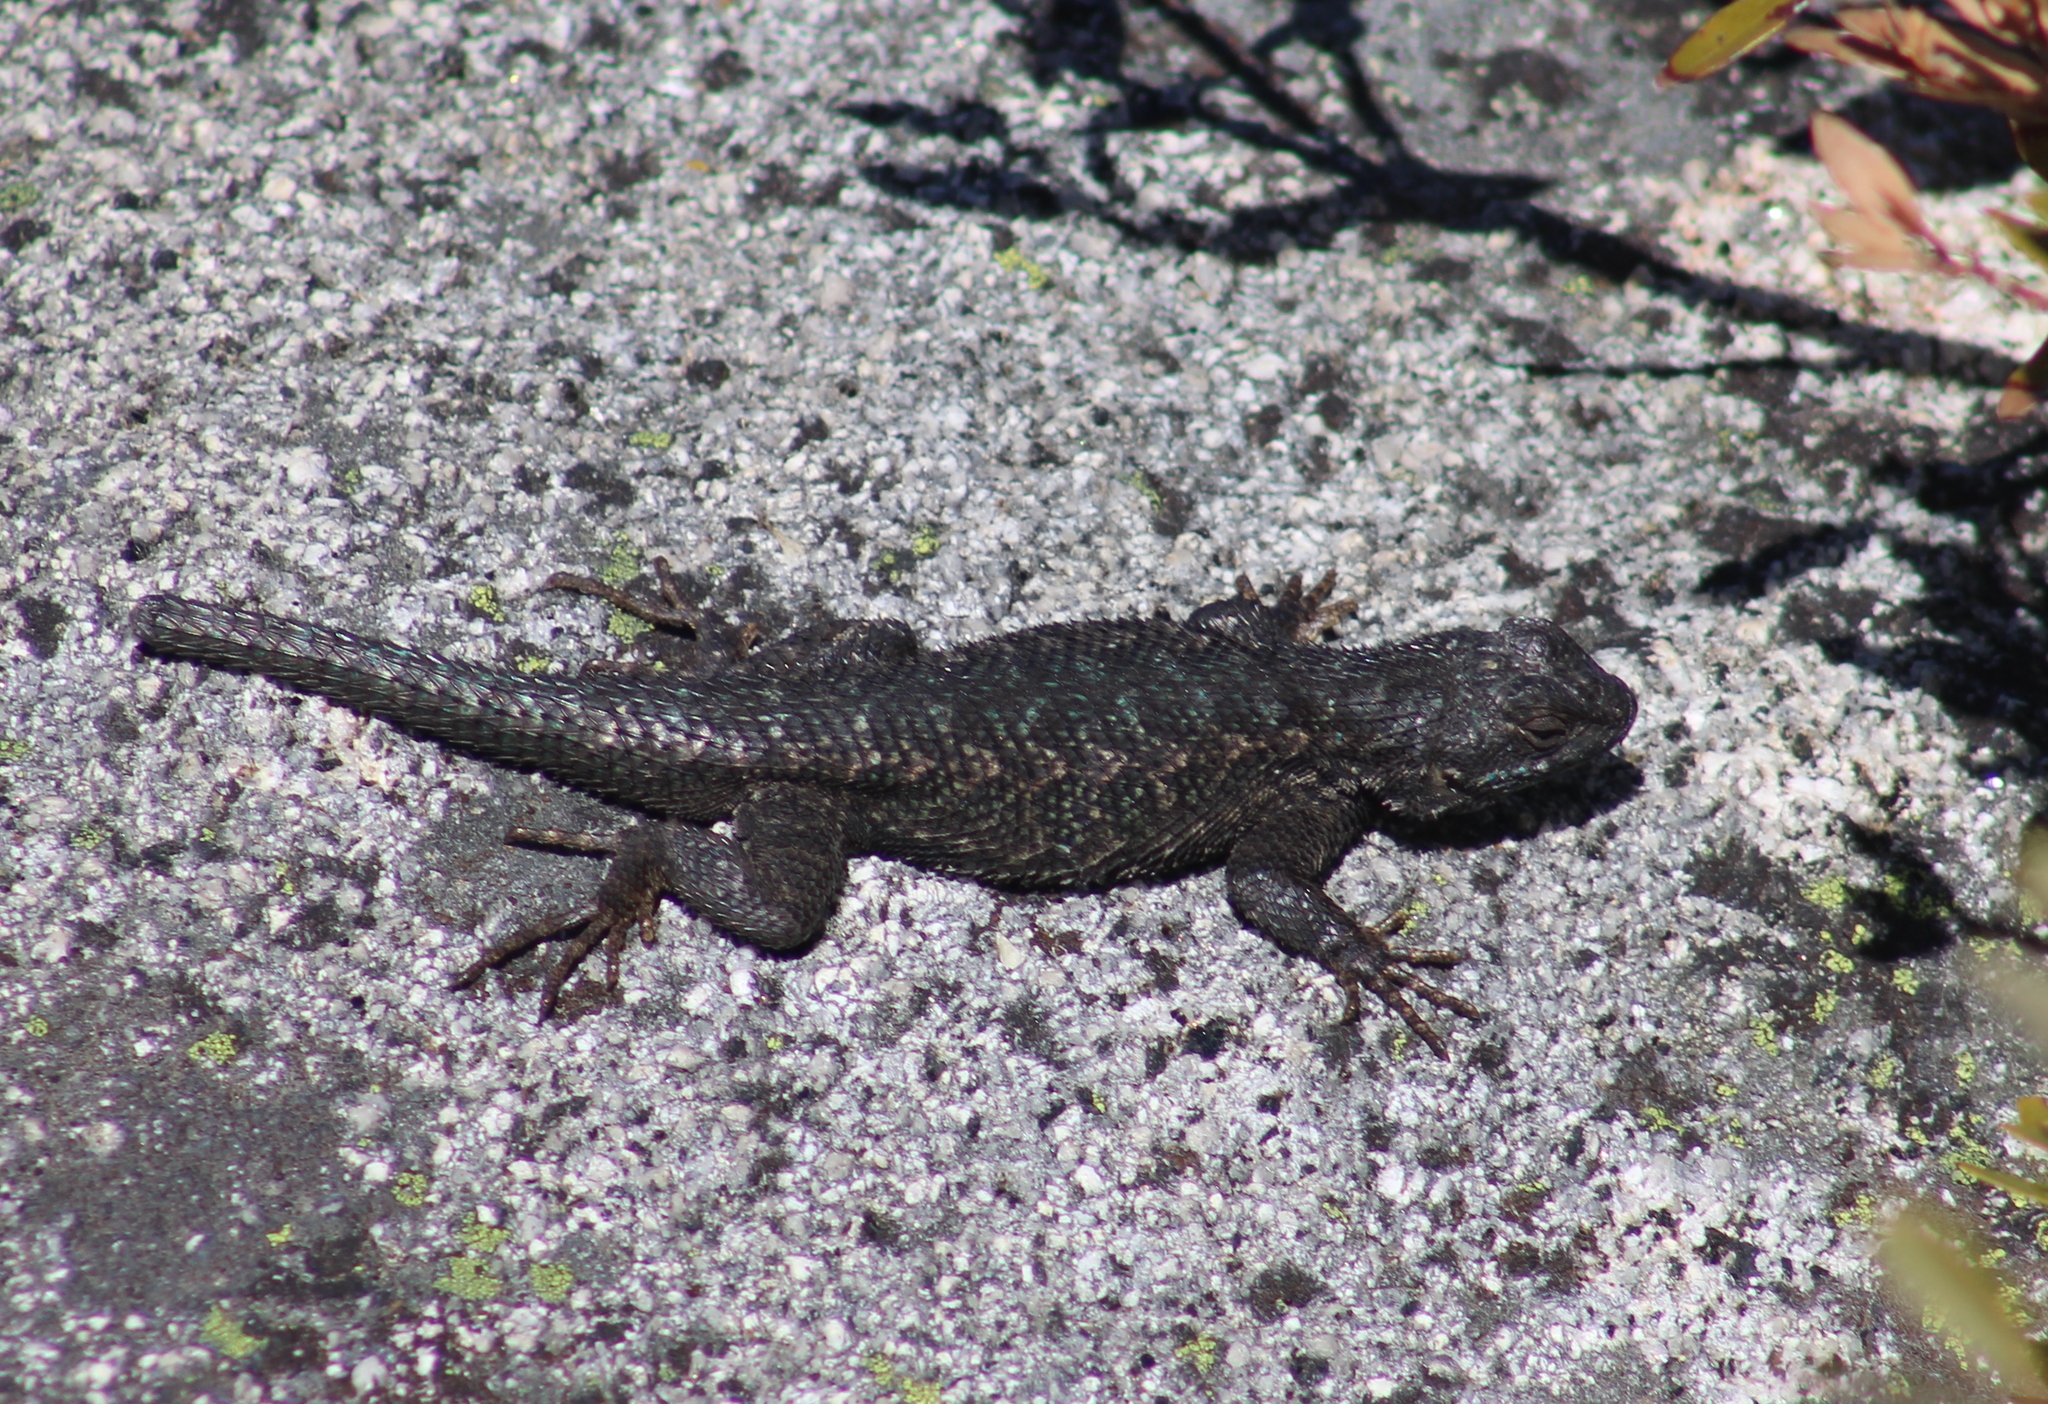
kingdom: Animalia
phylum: Chordata
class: Squamata
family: Phrynosomatidae
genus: Sceloporus
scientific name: Sceloporus occidentalis
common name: Western fence lizard
